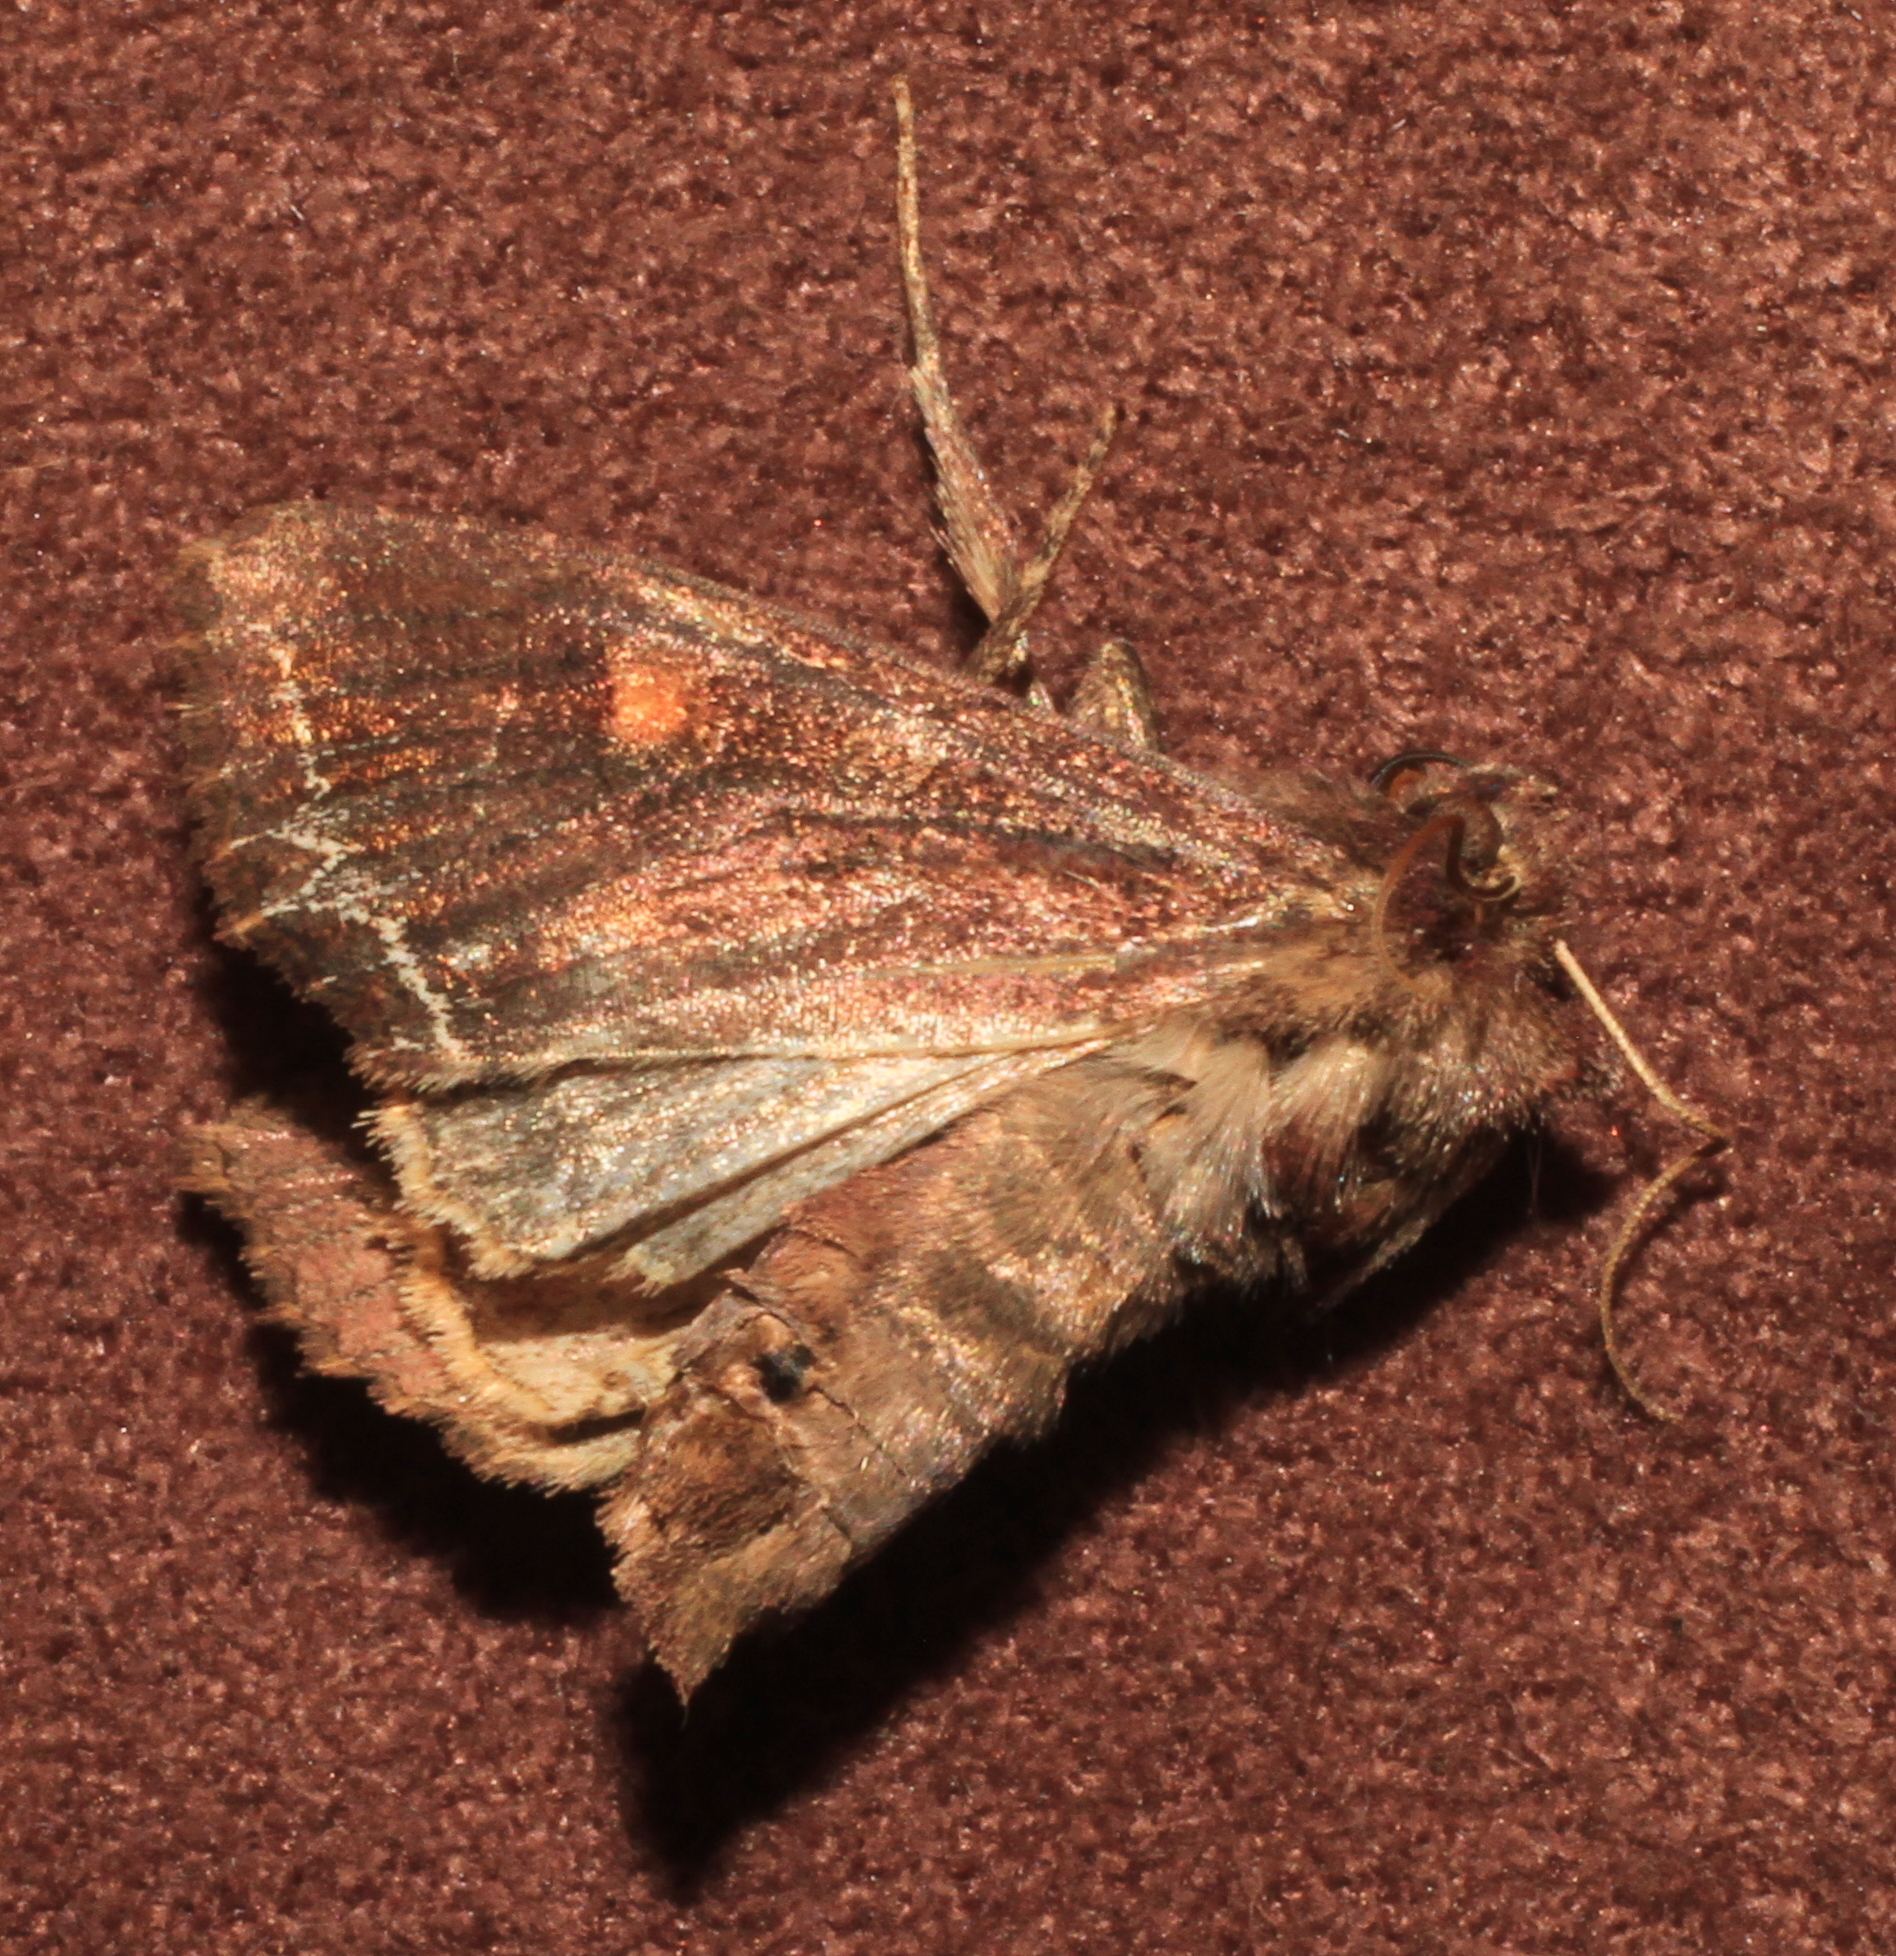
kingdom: Animalia
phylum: Arthropoda
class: Insecta
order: Lepidoptera
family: Noctuidae
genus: Lacanobia
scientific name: Lacanobia oleracea
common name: Bright-line brown-eye
